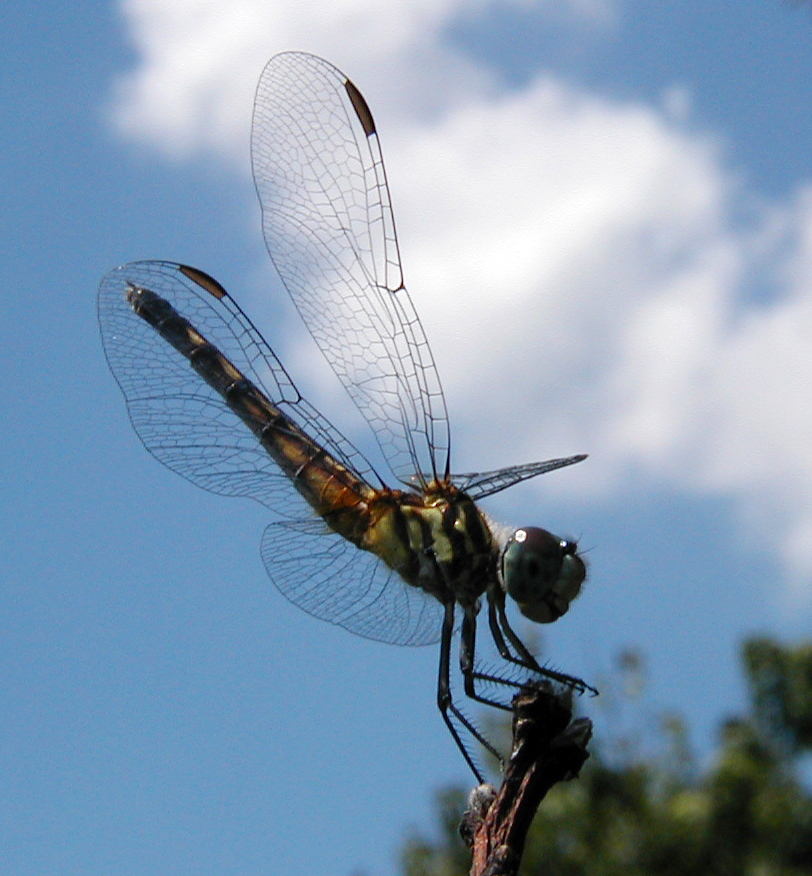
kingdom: Animalia
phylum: Arthropoda
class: Insecta
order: Odonata
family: Libellulidae
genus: Pachydiplax
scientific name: Pachydiplax longipennis
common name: Blue dasher
